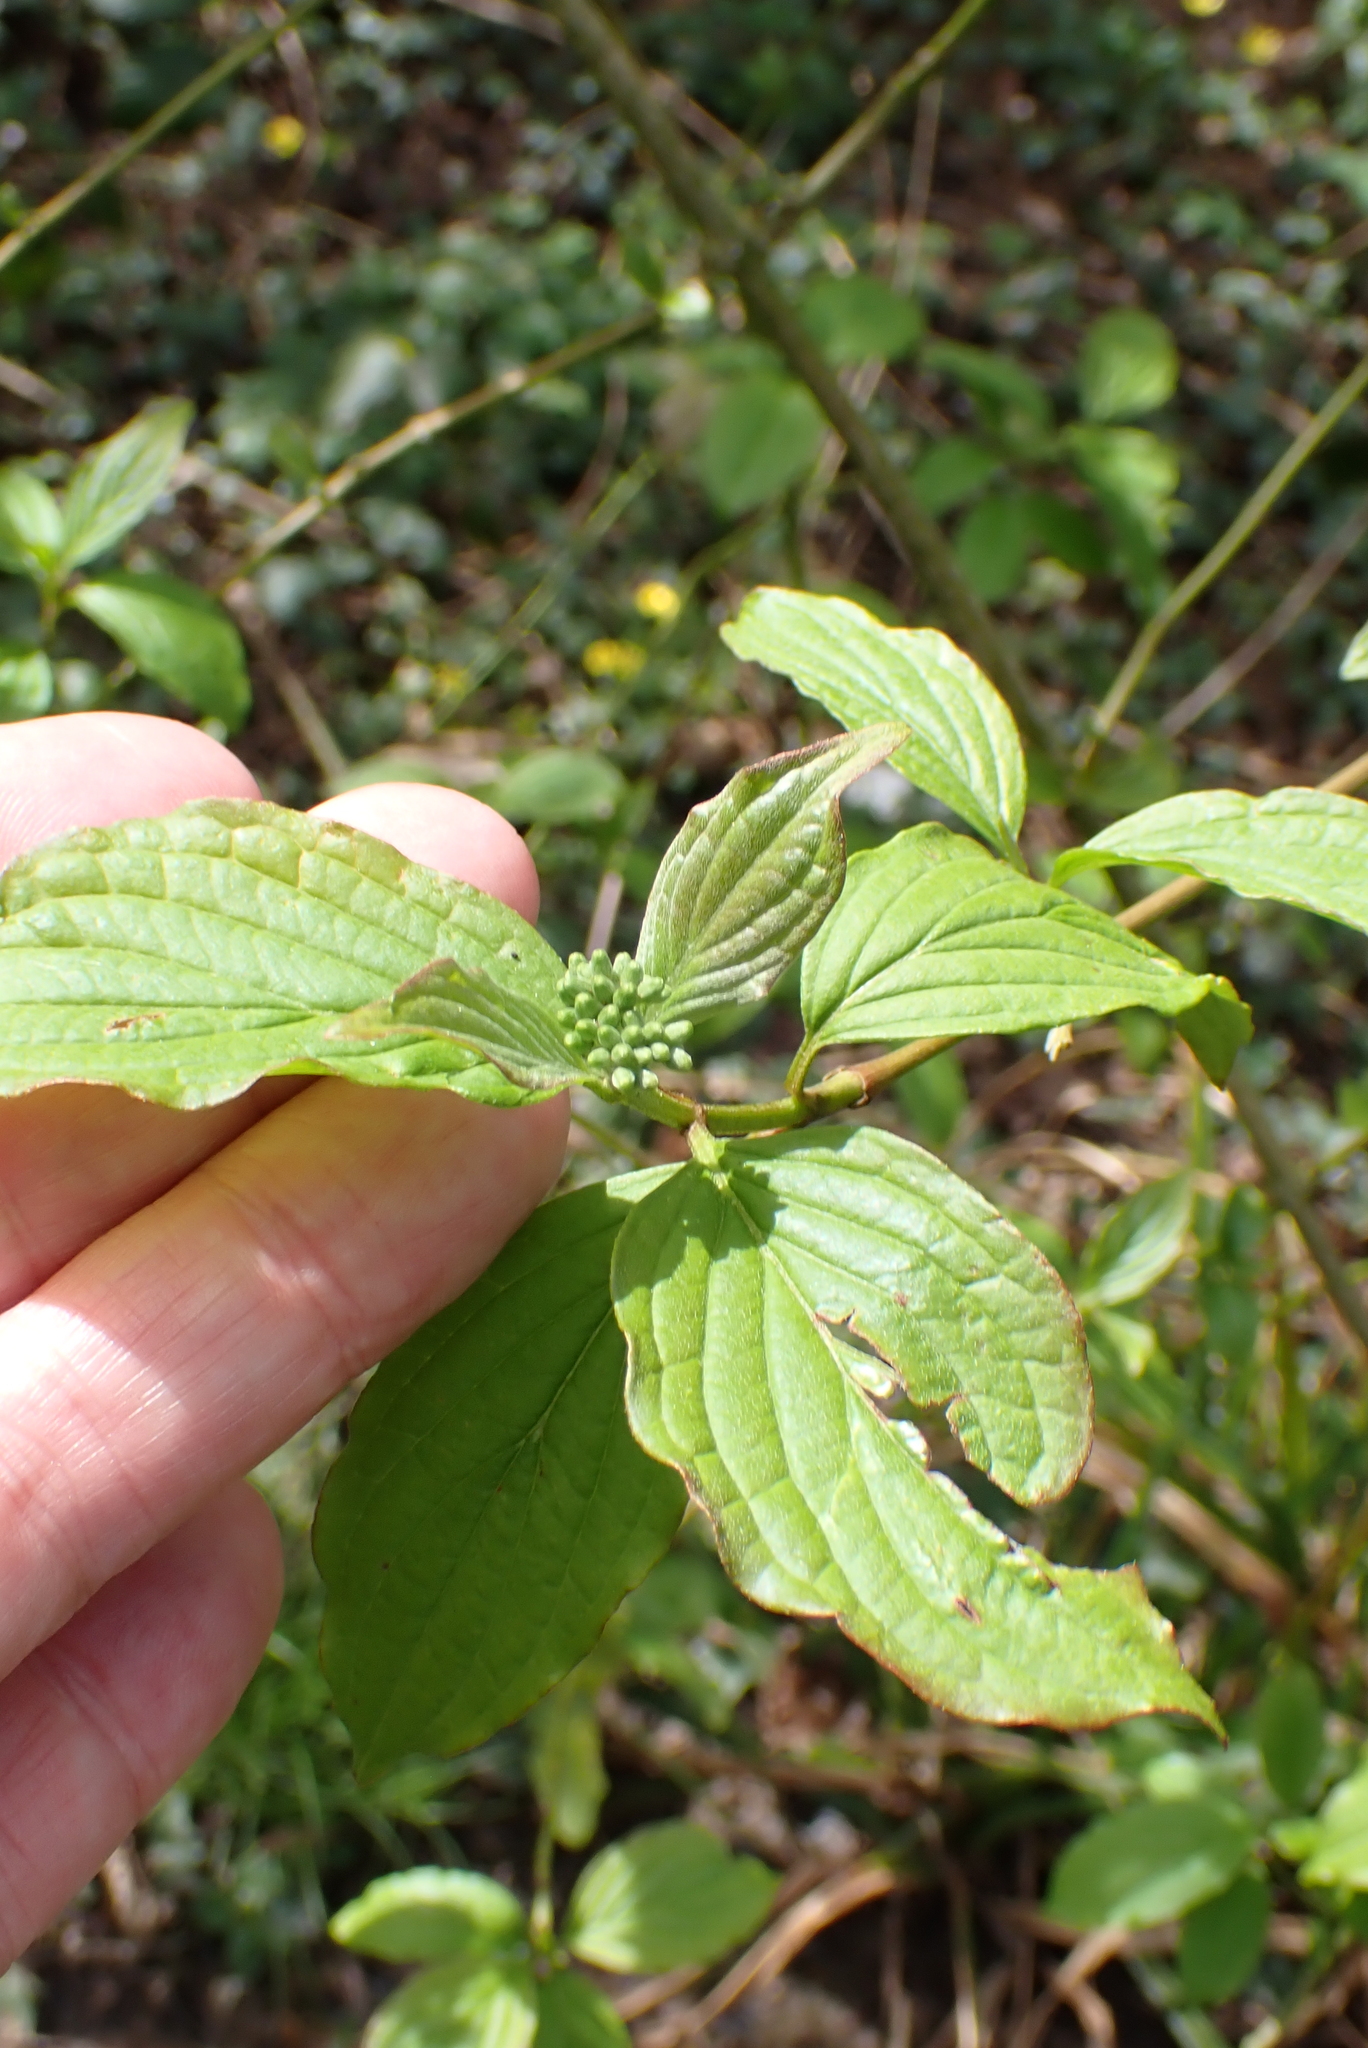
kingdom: Plantae
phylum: Tracheophyta
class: Magnoliopsida
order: Cornales
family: Cornaceae
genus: Cornus
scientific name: Cornus sanguinea
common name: Dogwood
